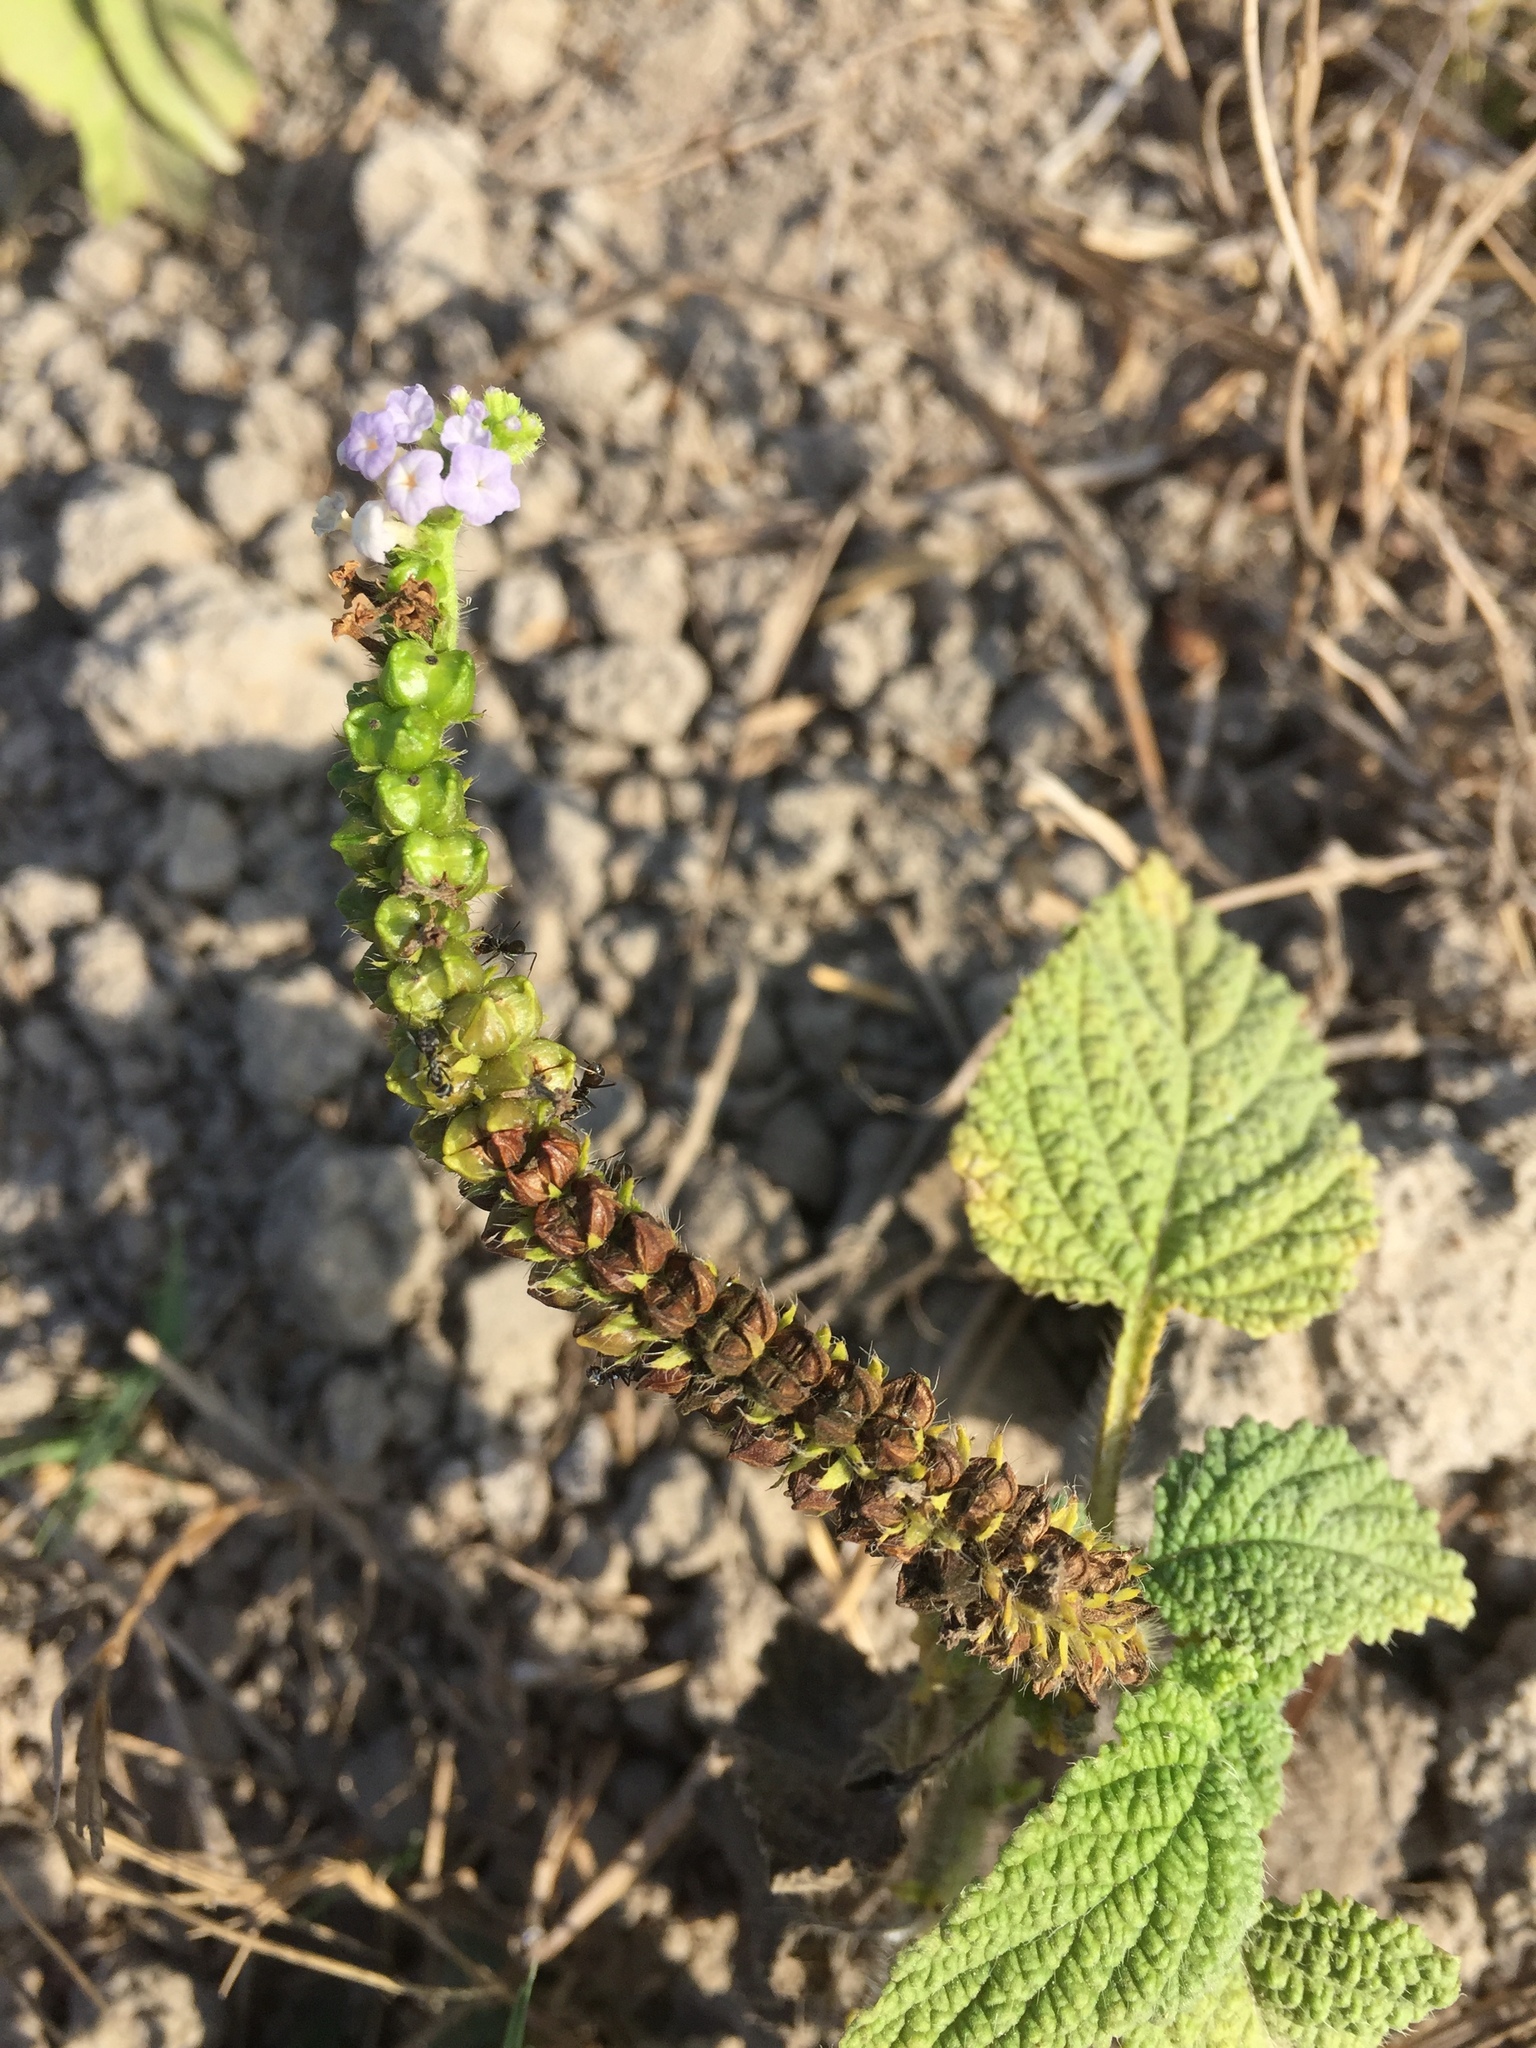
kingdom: Plantae
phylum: Tracheophyta
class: Magnoliopsida
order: Boraginales
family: Heliotropiaceae
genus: Heliotropium
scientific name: Heliotropium indicum
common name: Indian heliotrope
